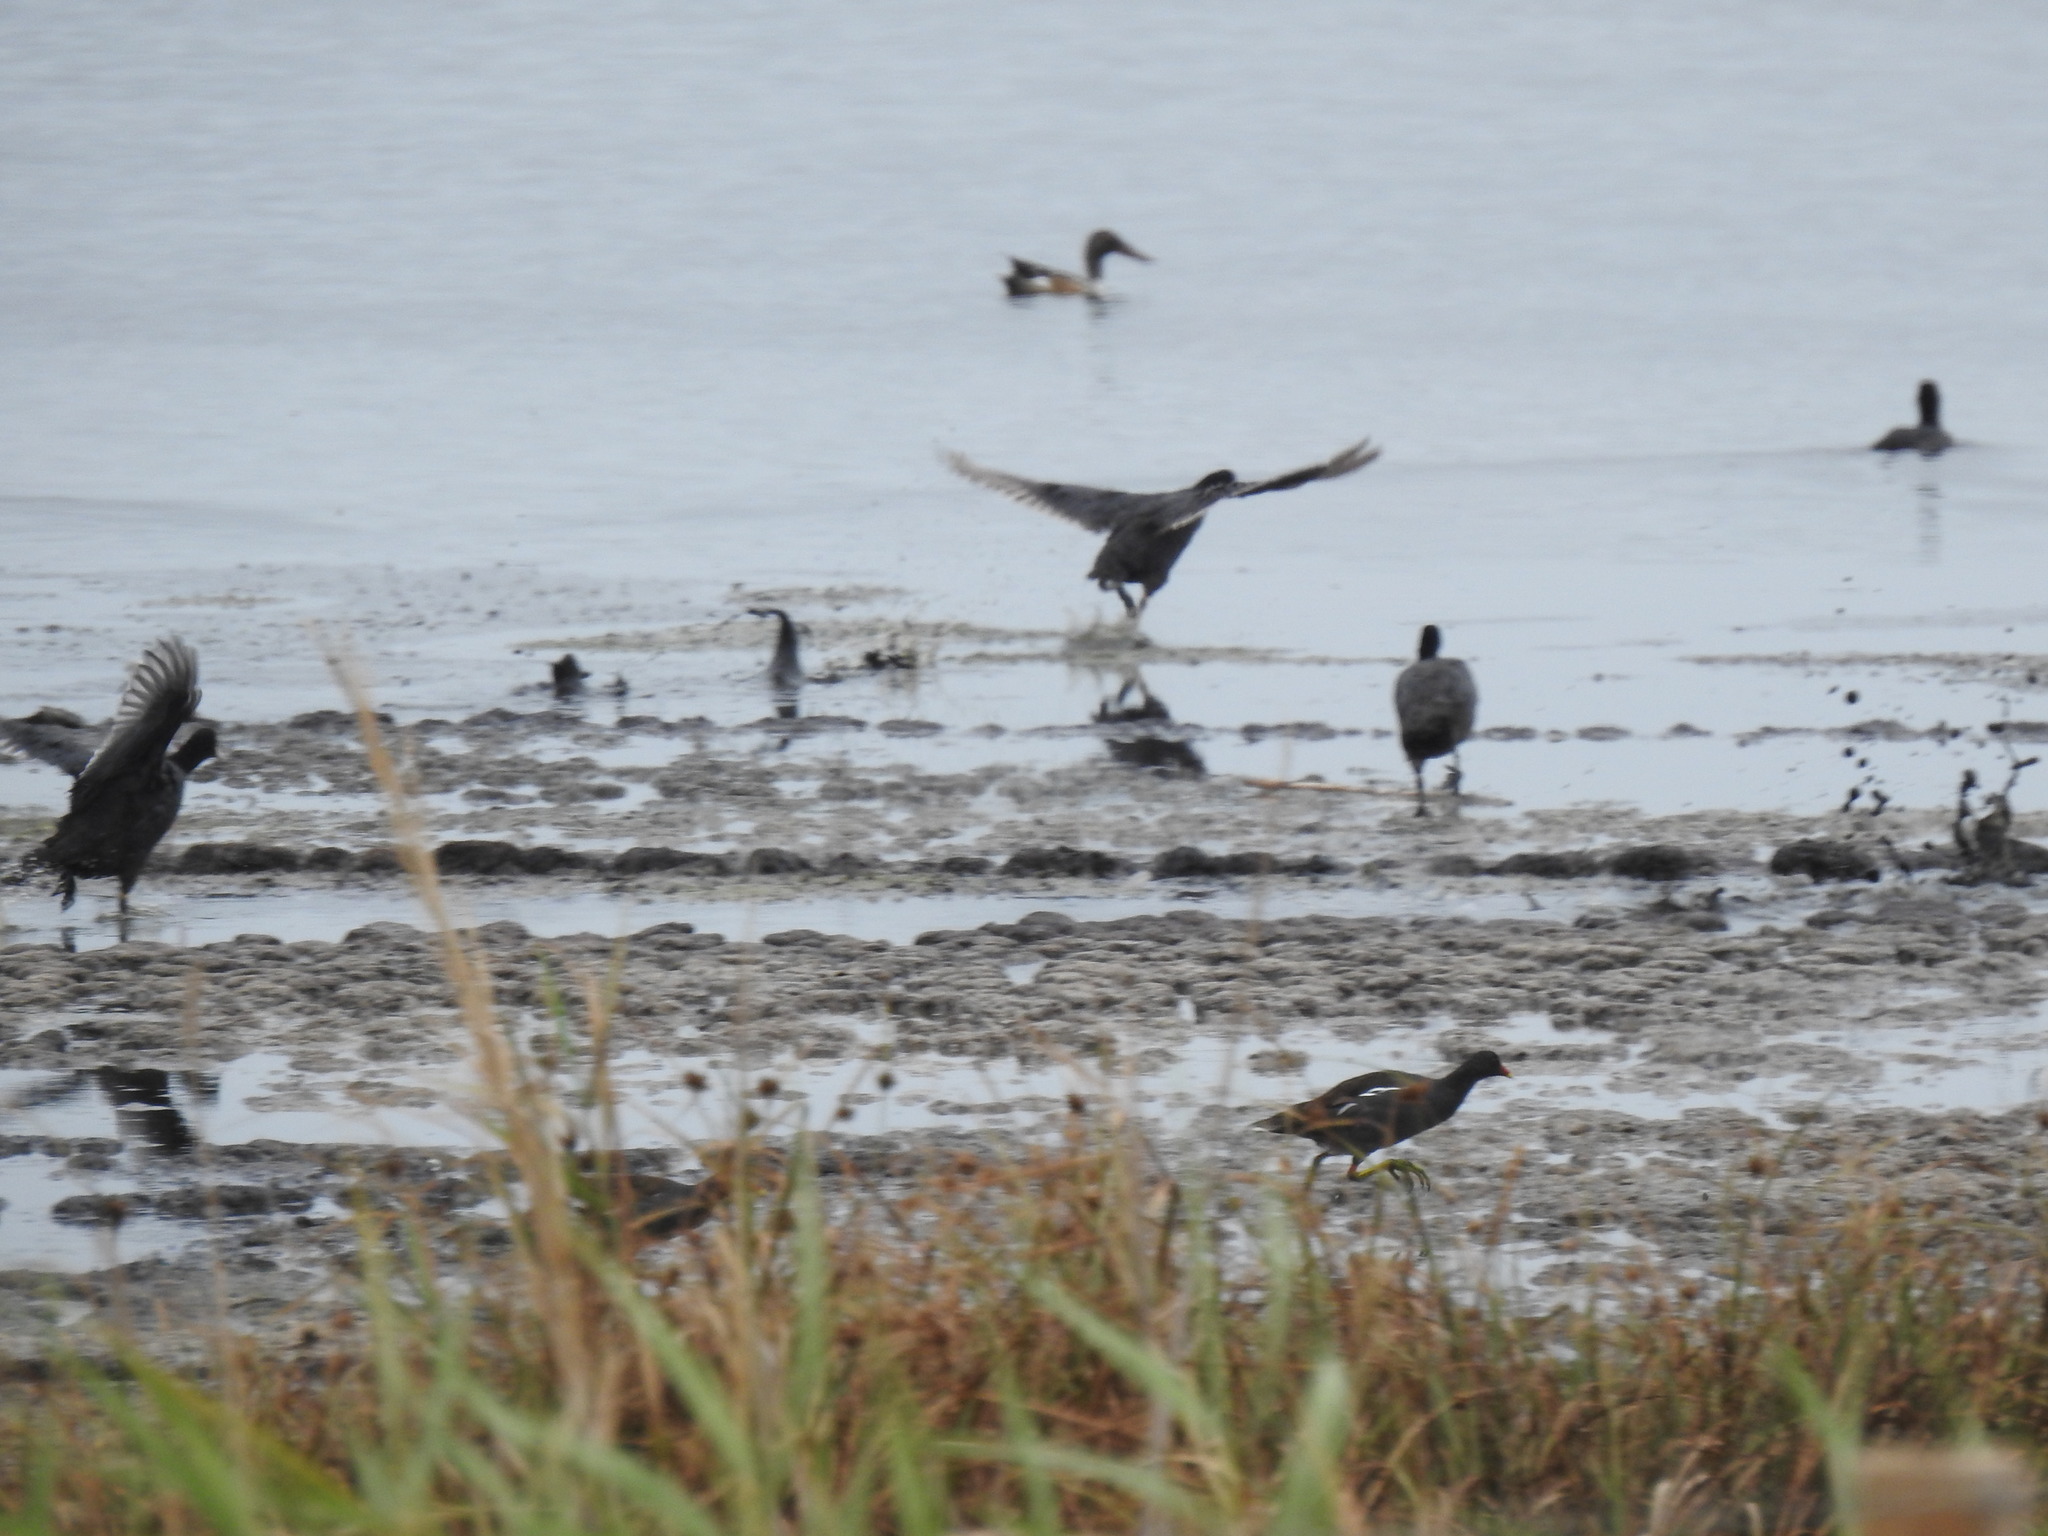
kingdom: Animalia
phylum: Chordata
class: Aves
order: Gruiformes
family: Rallidae
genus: Gallinula
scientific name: Gallinula chloropus
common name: Common moorhen
